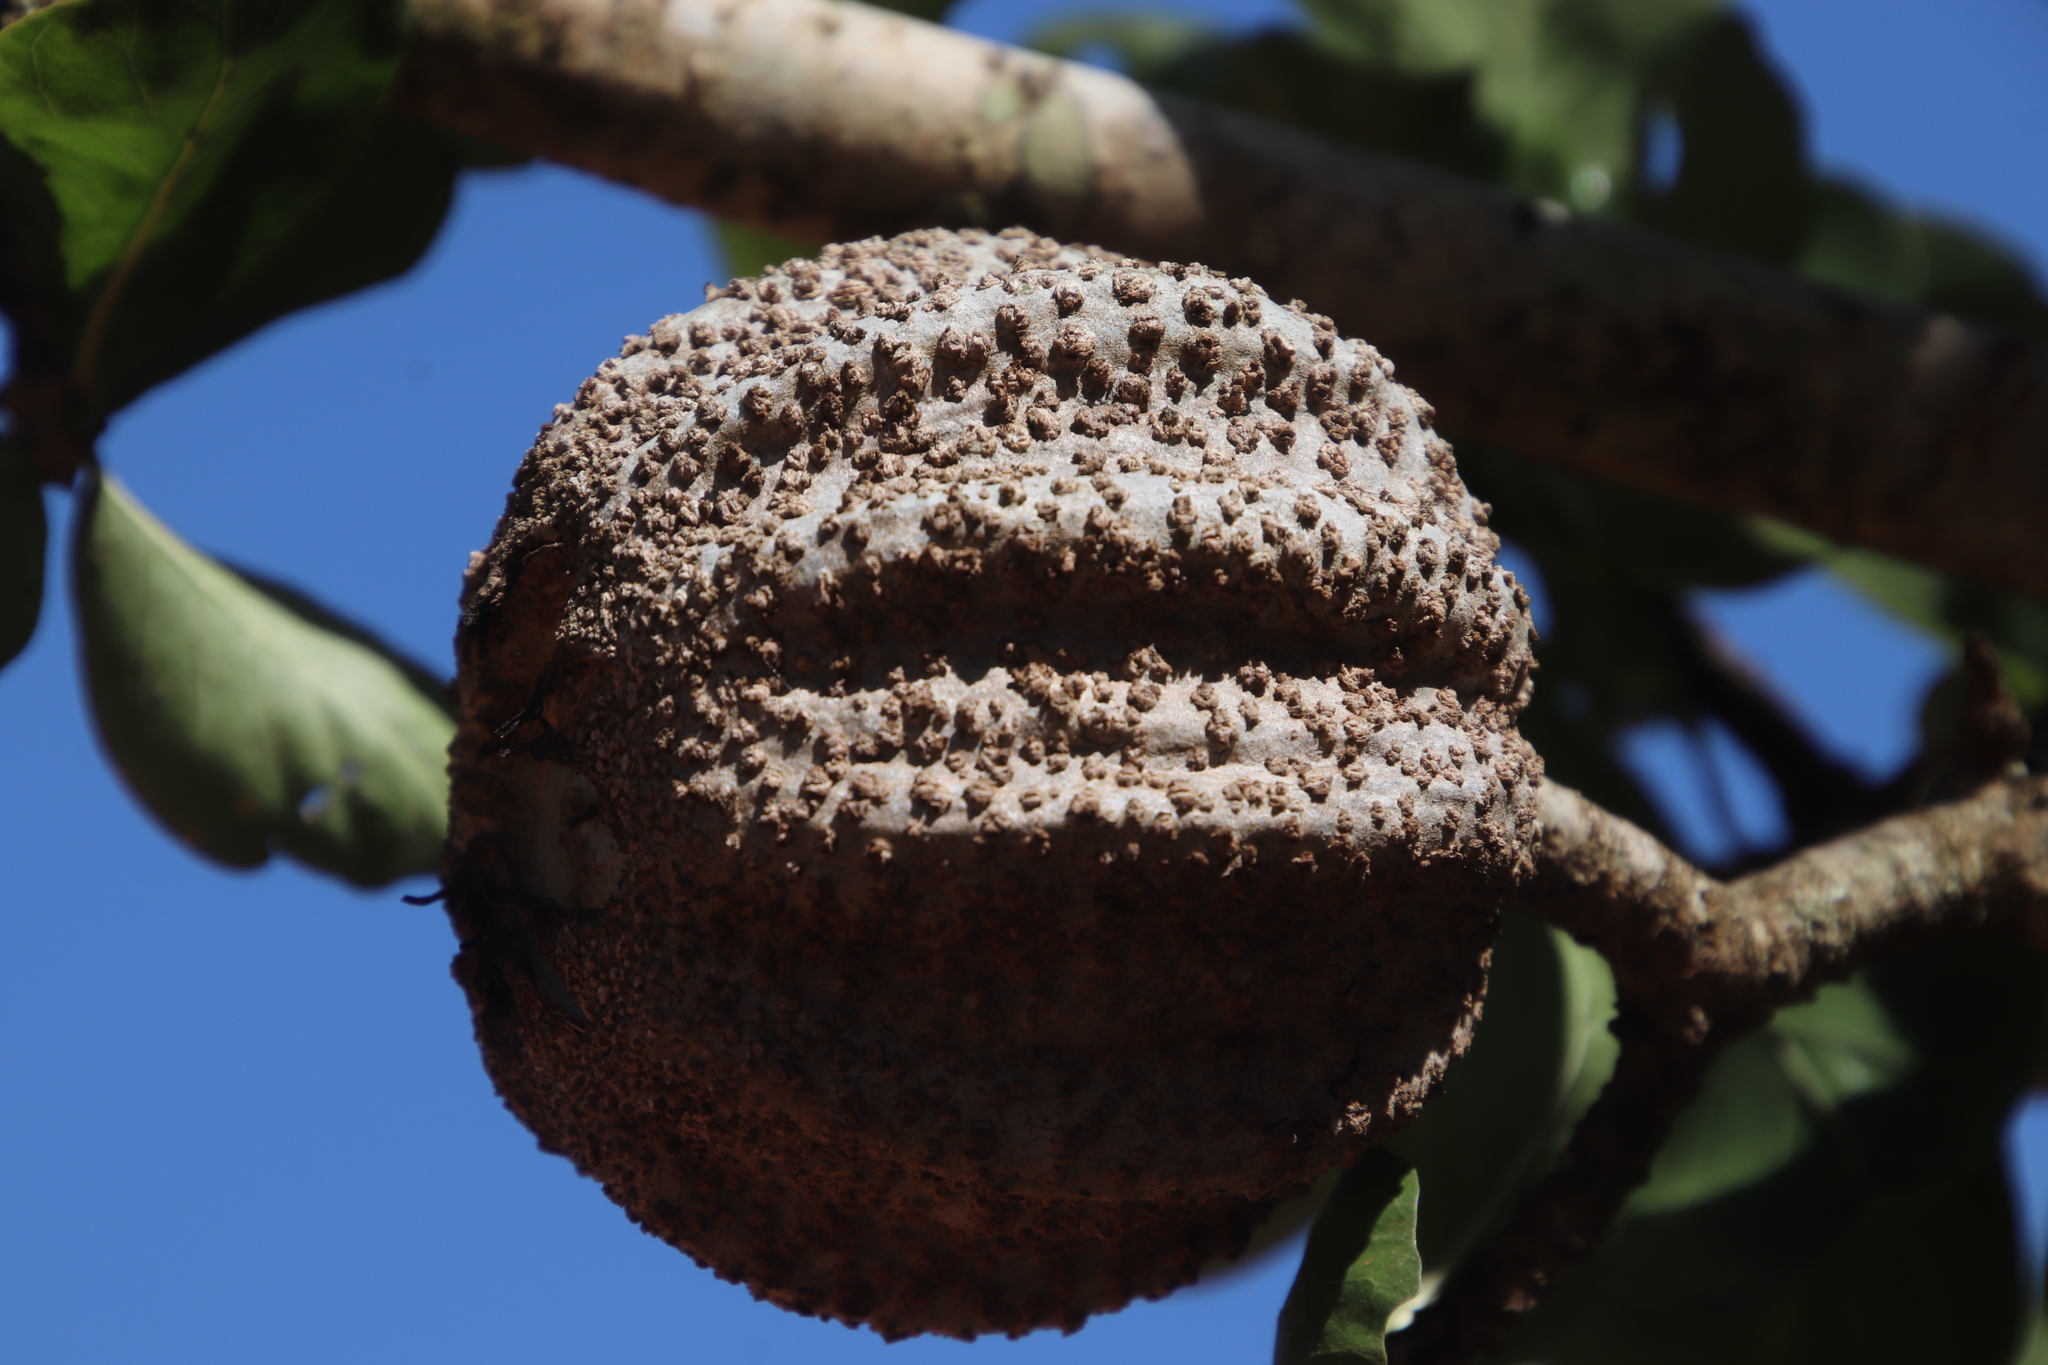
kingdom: Plantae
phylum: Tracheophyta
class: Magnoliopsida
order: Gentianales
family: Rubiaceae
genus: Gardenia
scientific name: Gardenia volkensii
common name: Common gardenia
